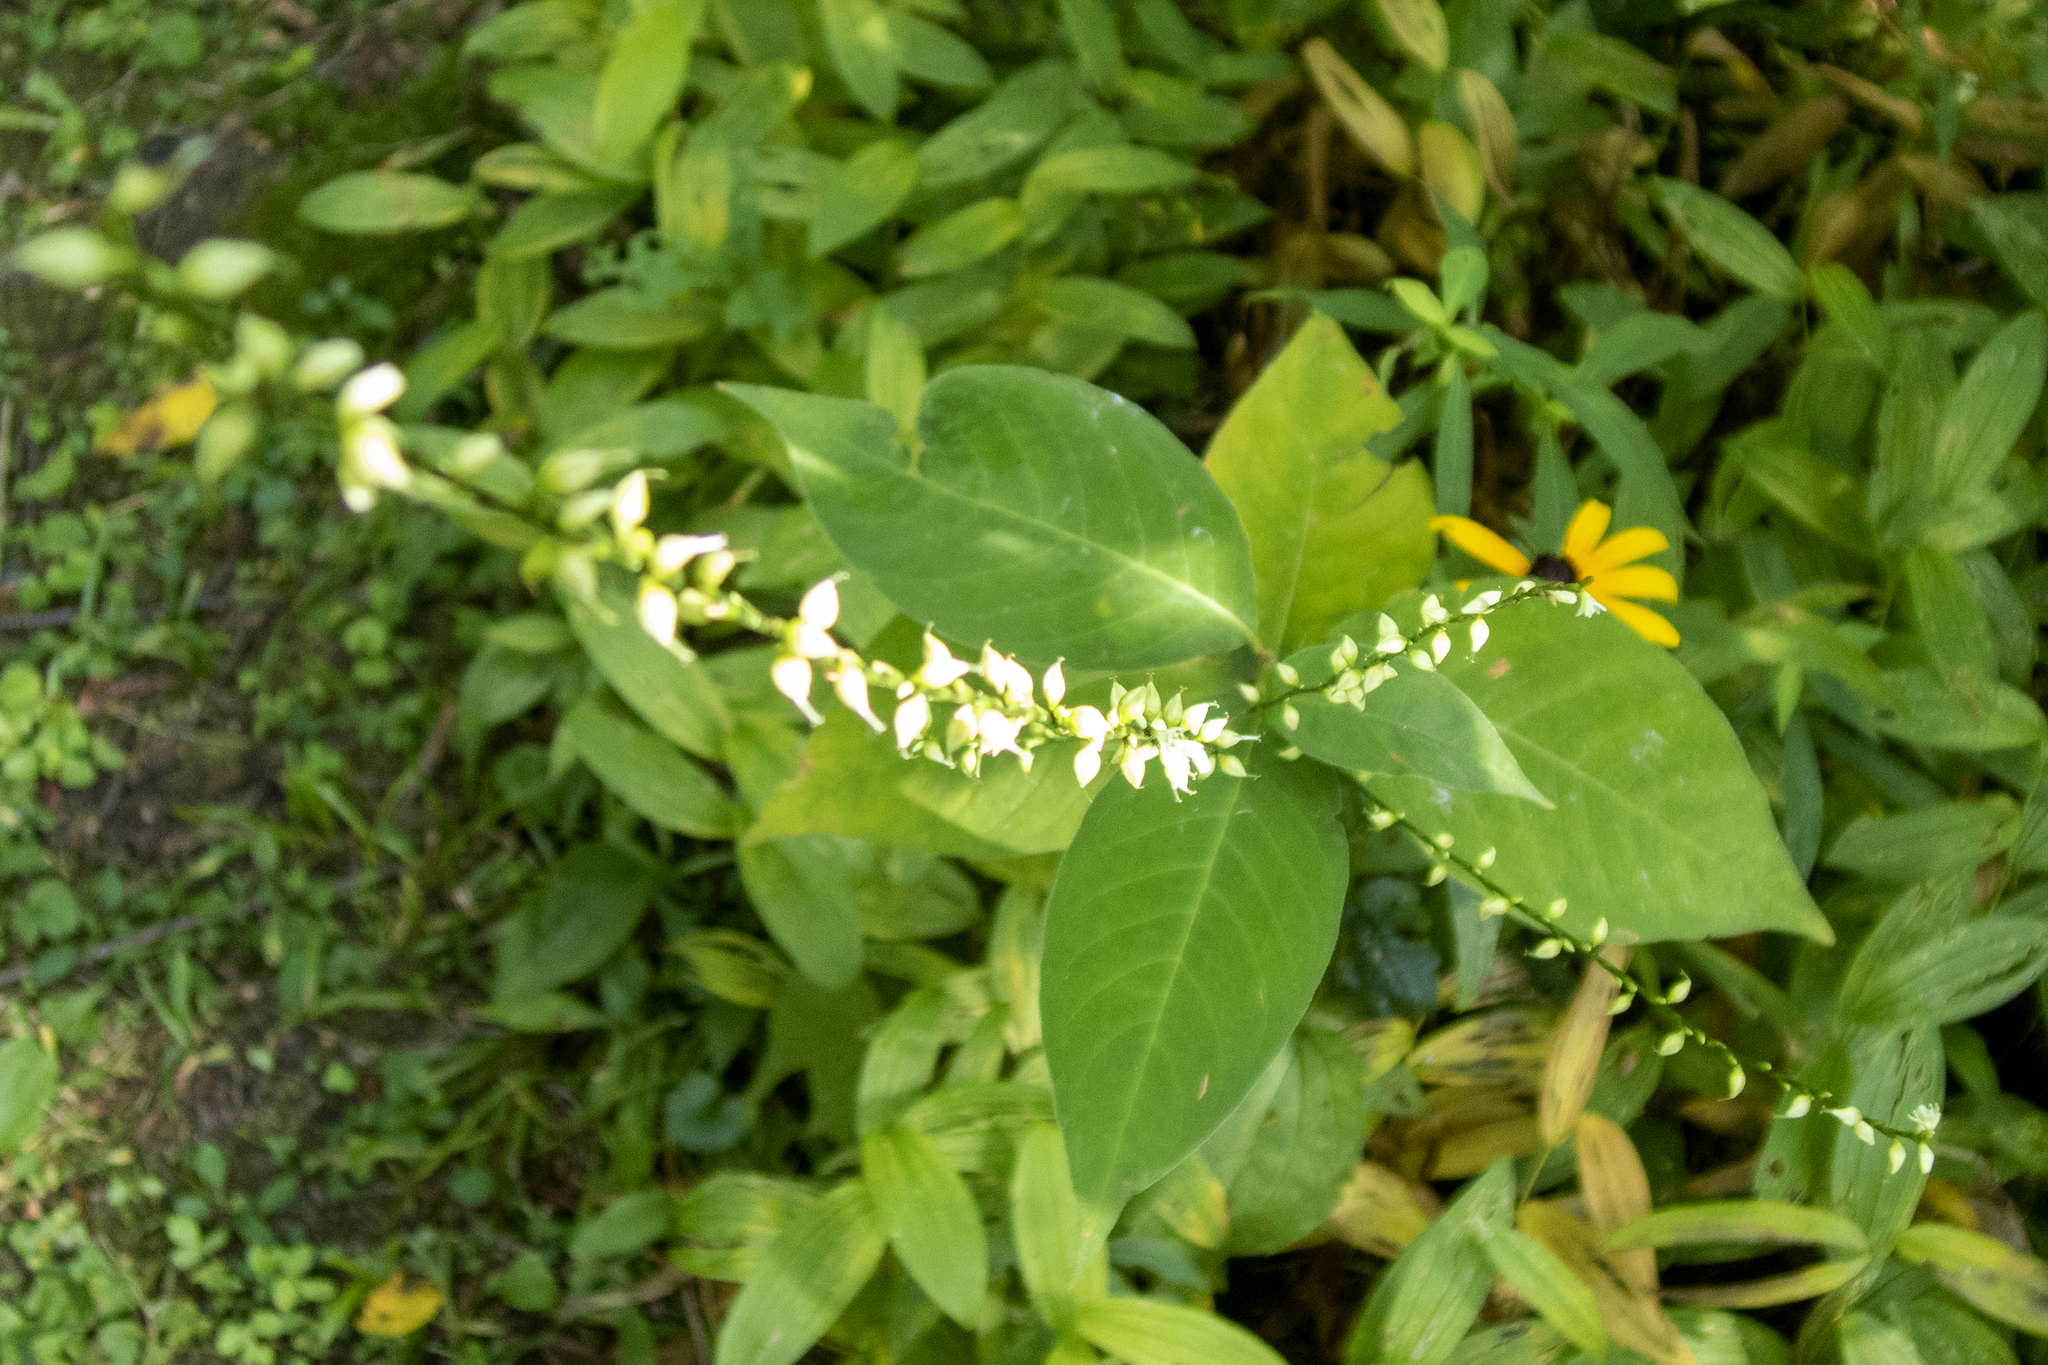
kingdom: Plantae
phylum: Tracheophyta
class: Magnoliopsida
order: Caryophyllales
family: Polygonaceae
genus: Persicaria
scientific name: Persicaria virginiana
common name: Jumpseed
